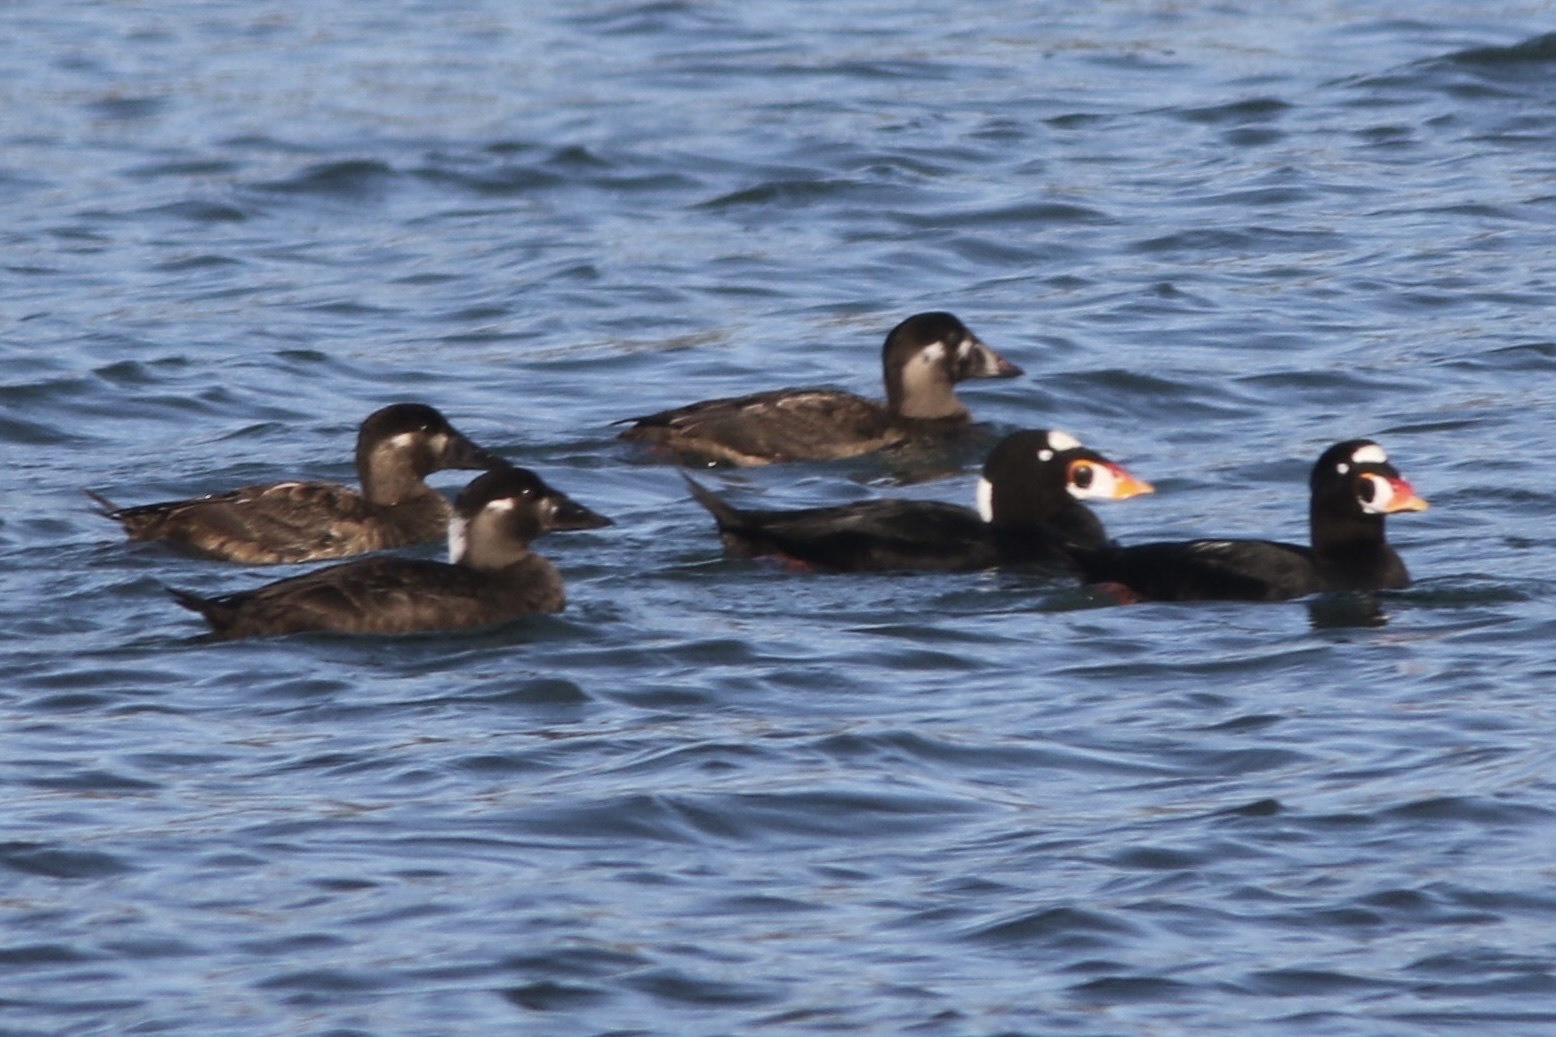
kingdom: Animalia
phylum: Chordata
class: Aves
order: Anseriformes
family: Anatidae
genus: Melanitta
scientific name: Melanitta perspicillata
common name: Surf scoter
